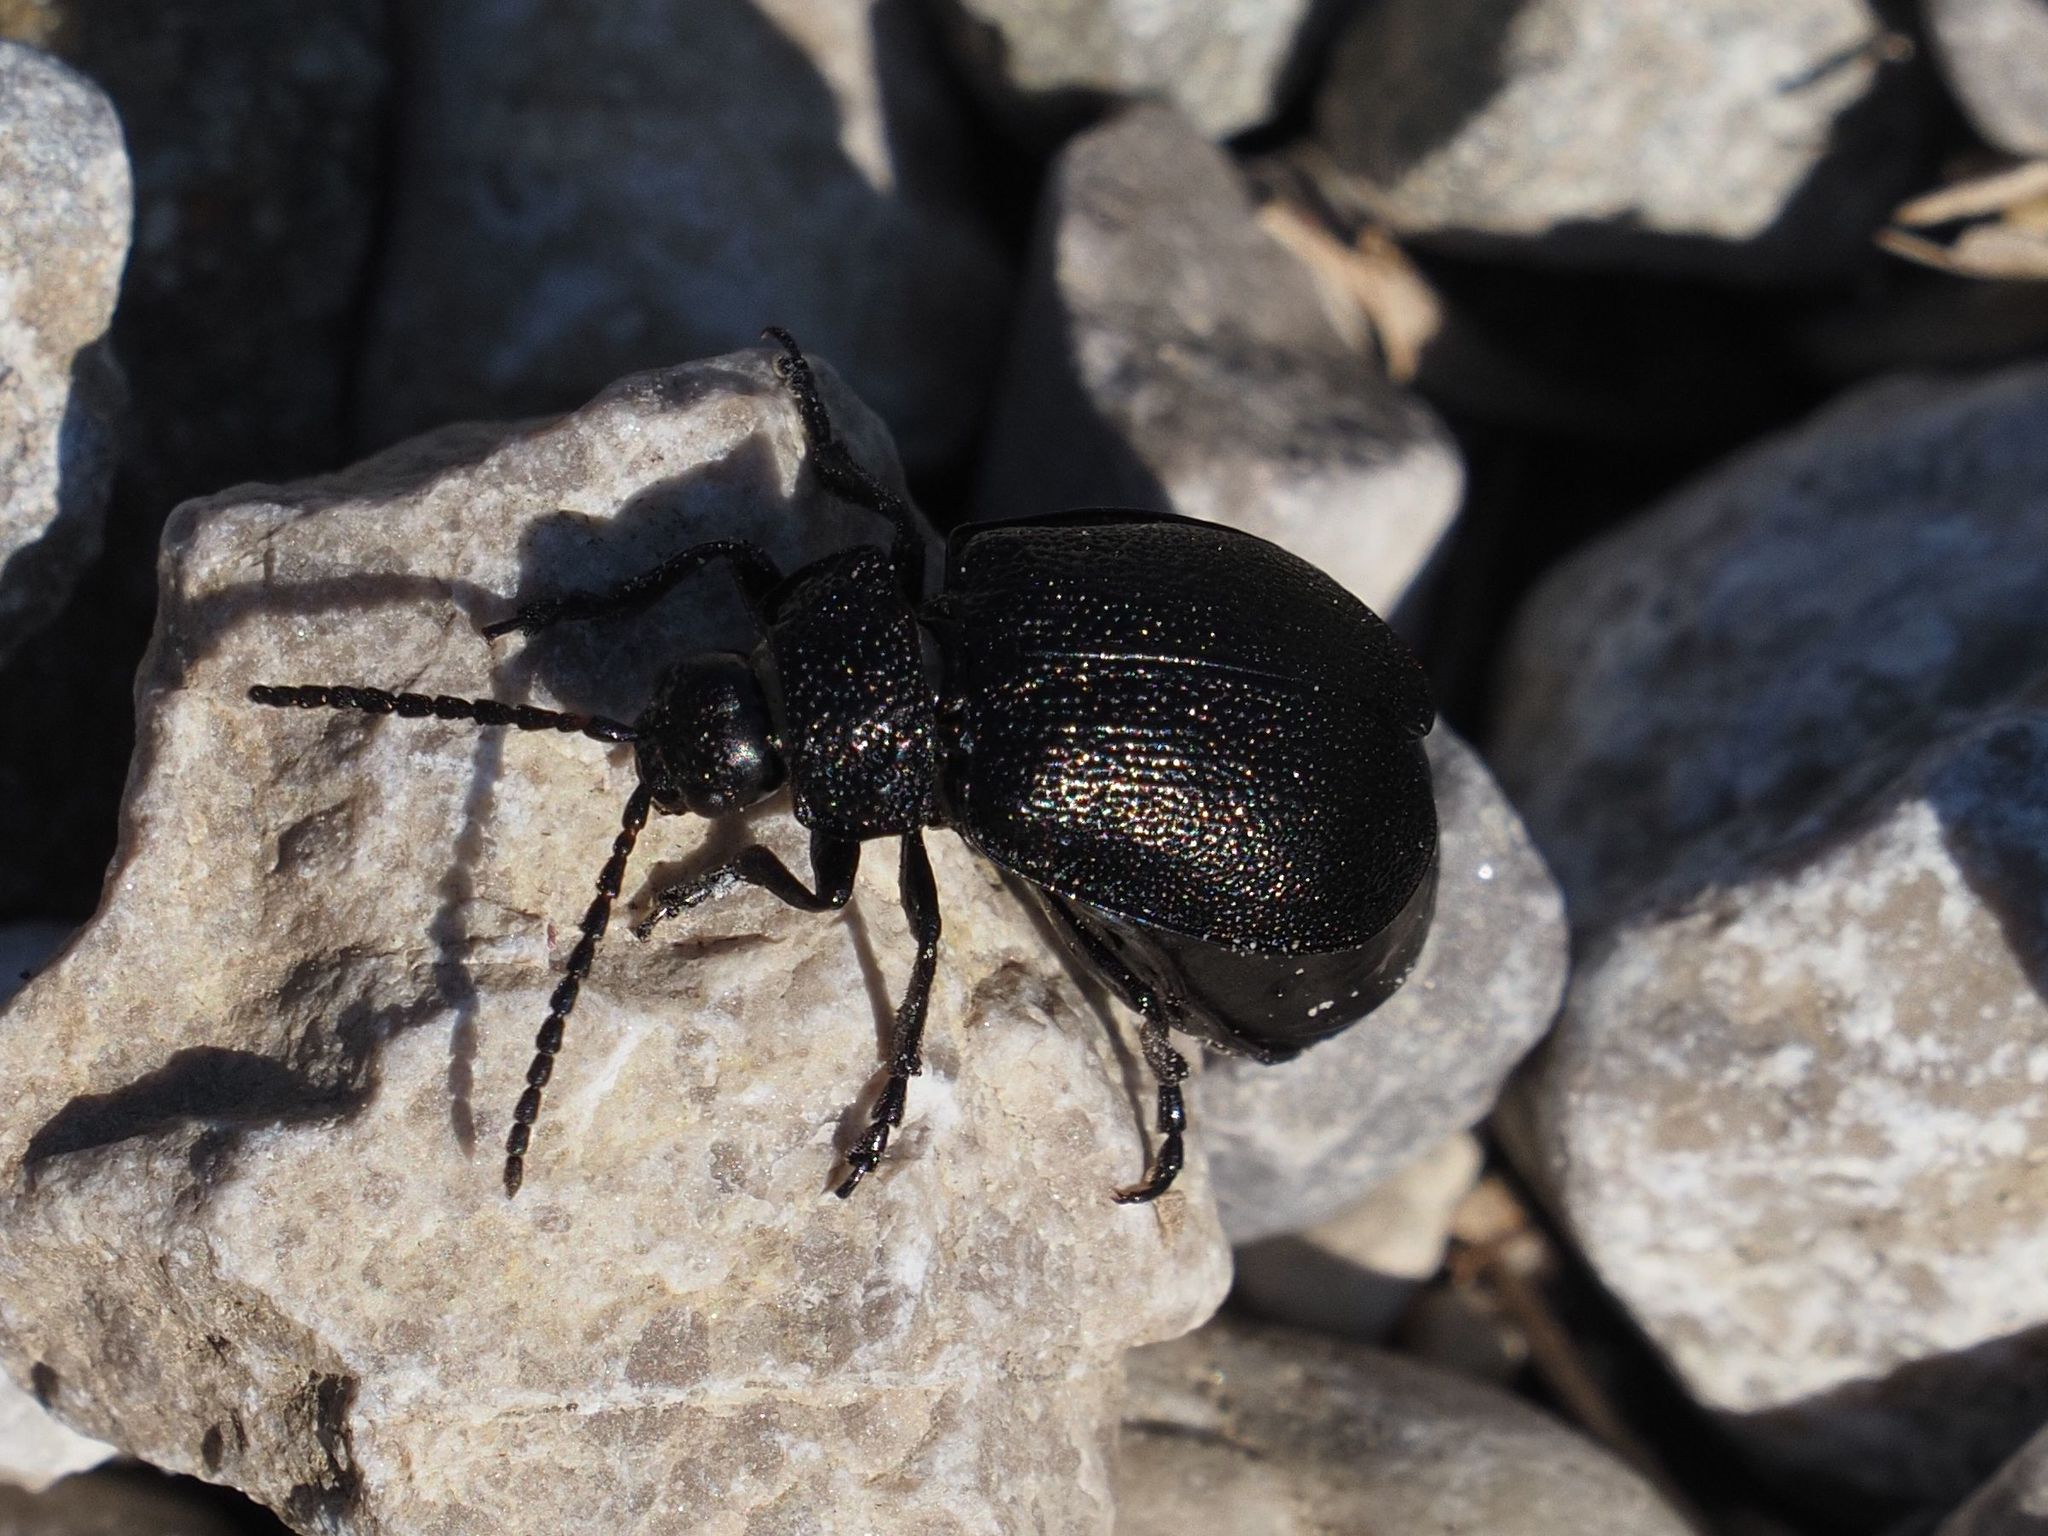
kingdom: Animalia
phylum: Arthropoda
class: Insecta
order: Coleoptera
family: Chrysomelidae
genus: Galeruca
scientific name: Galeruca tanaceti
